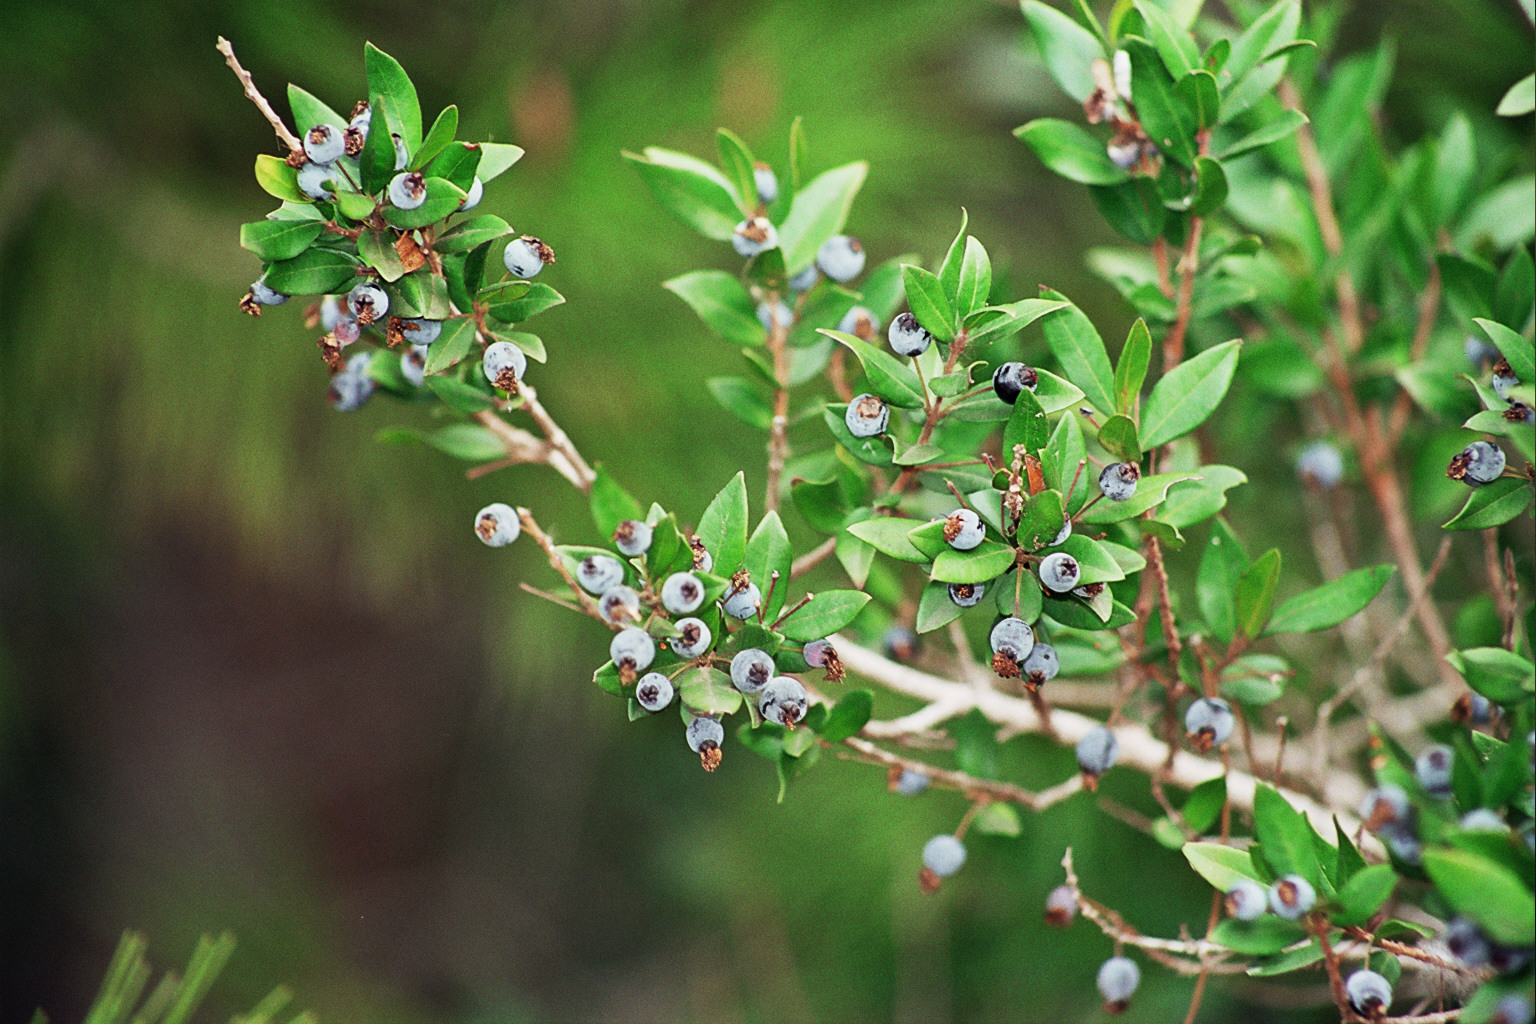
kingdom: Plantae
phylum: Tracheophyta
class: Magnoliopsida
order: Myrtales
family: Myrtaceae
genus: Myrtus
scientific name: Myrtus communis
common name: Myrtle
